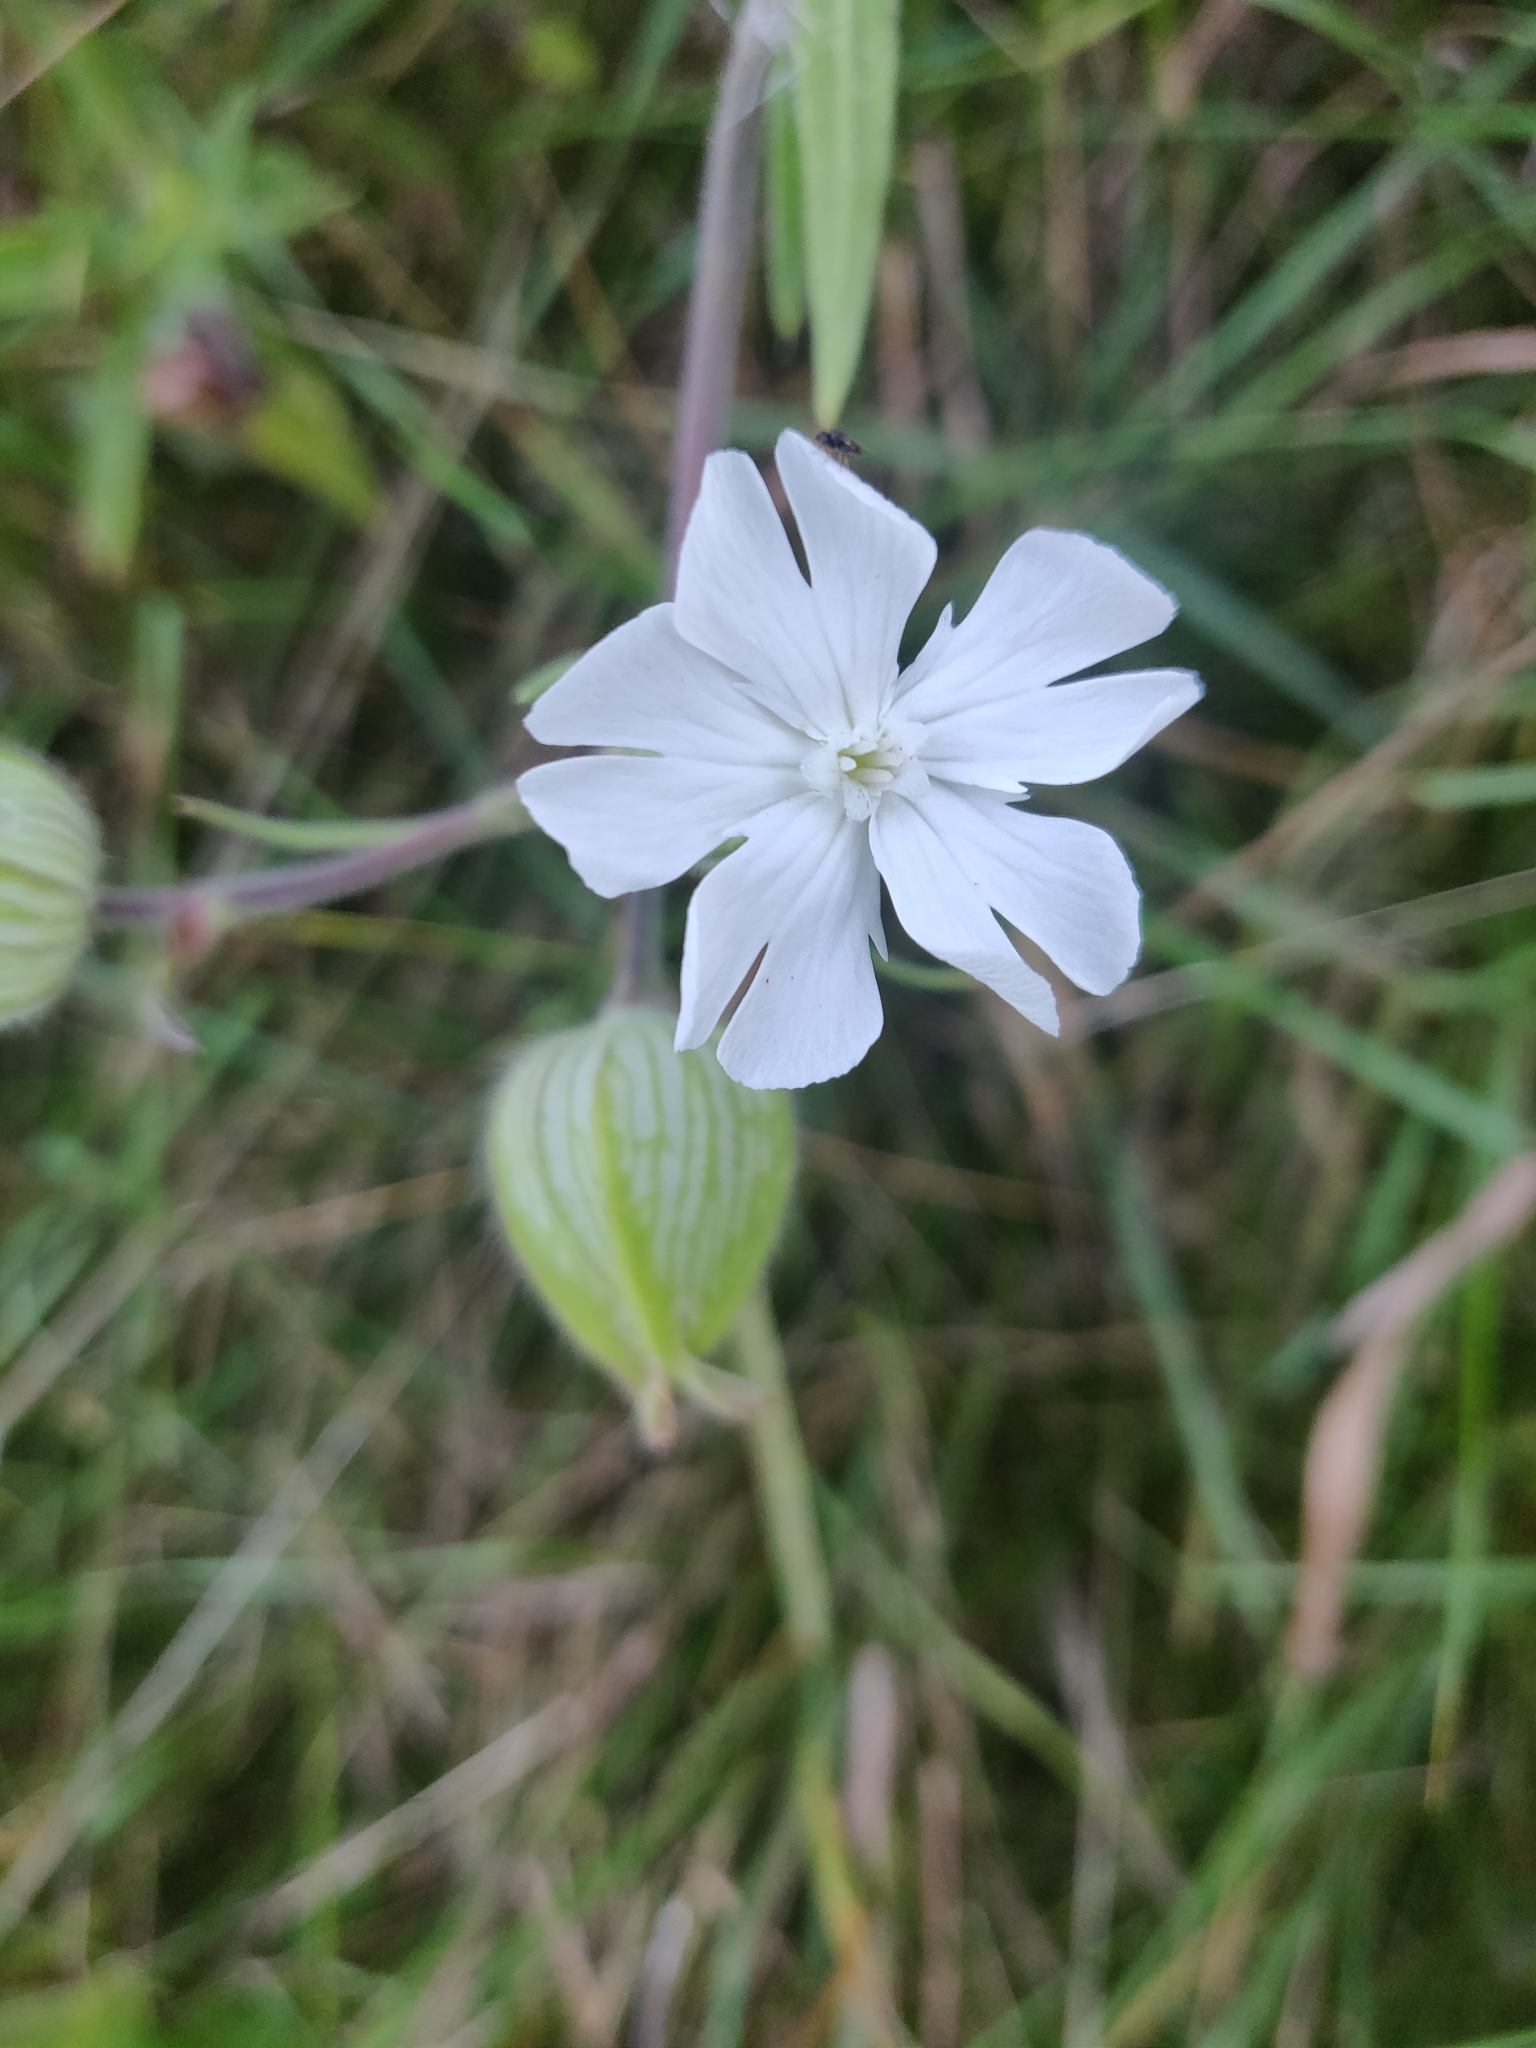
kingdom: Plantae
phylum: Tracheophyta
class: Magnoliopsida
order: Caryophyllales
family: Caryophyllaceae
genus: Silene
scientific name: Silene latifolia
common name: White campion
